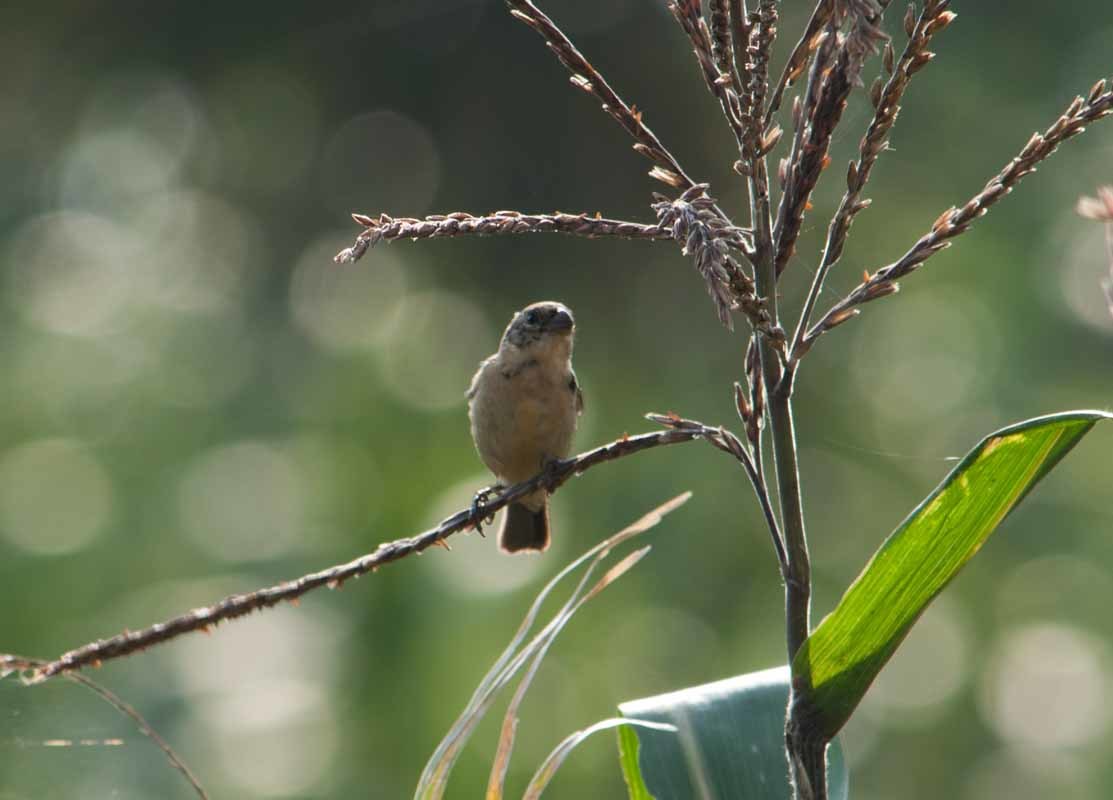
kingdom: Animalia
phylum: Chordata
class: Aves
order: Passeriformes
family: Thraupidae
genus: Sporophila
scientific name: Sporophila morelleti
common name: Morelet's seedeater
